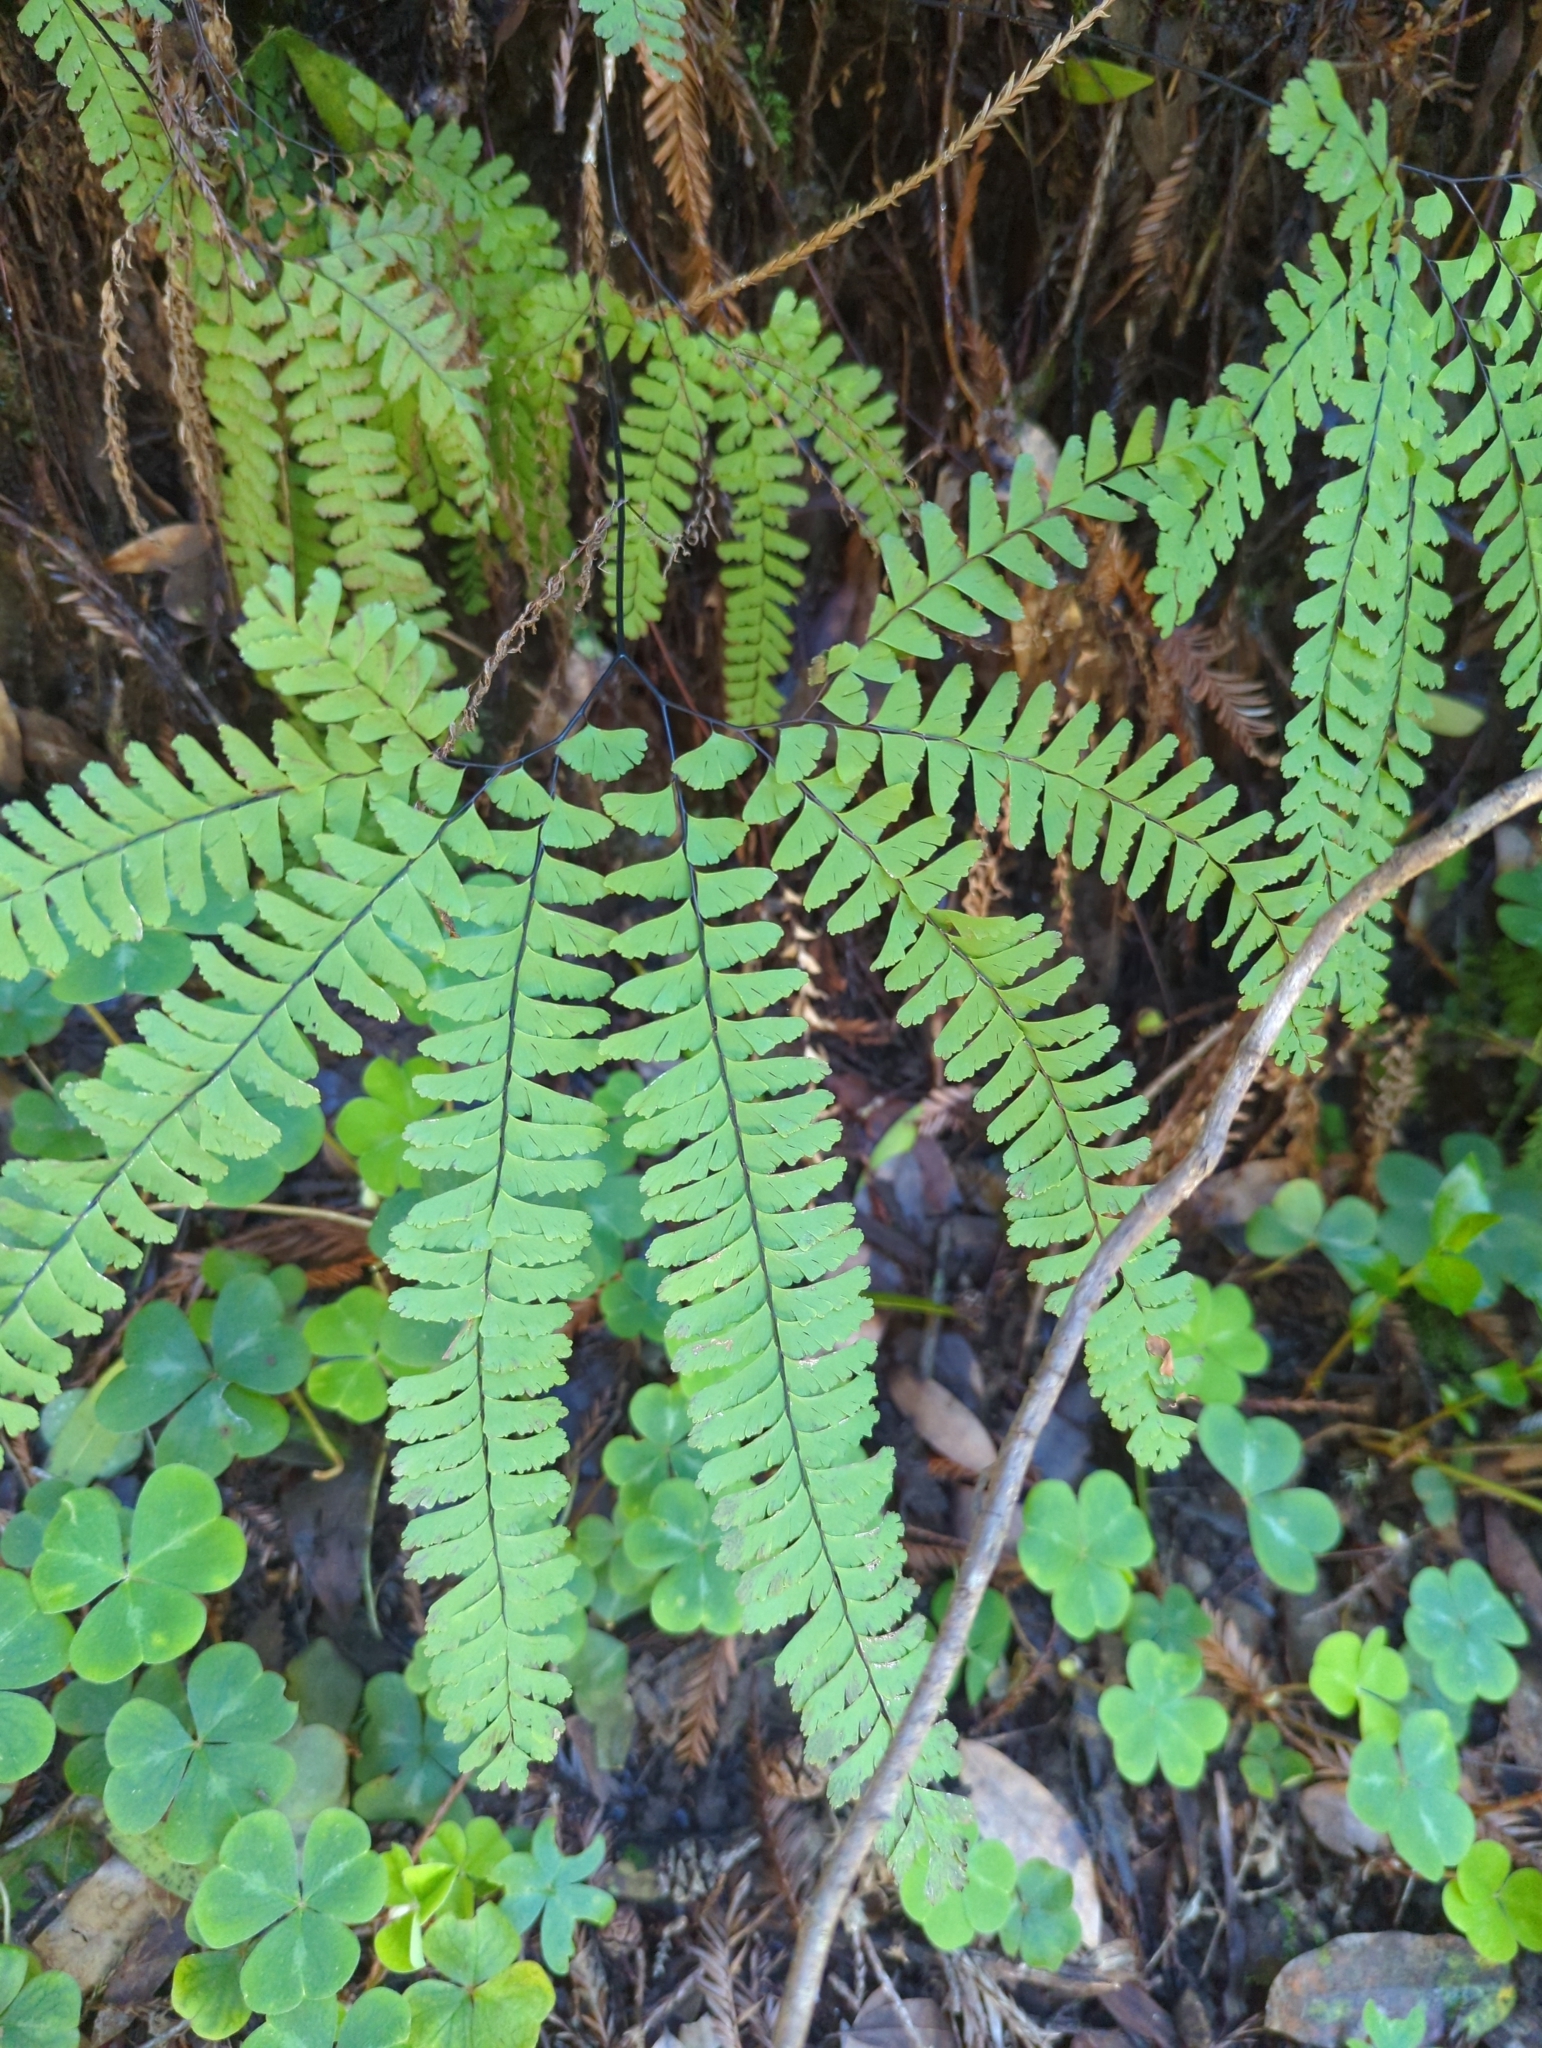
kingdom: Plantae
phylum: Tracheophyta
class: Polypodiopsida
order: Polypodiales
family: Pteridaceae
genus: Adiantum
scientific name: Adiantum aleuticum
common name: Aleutian maidenhair fern
